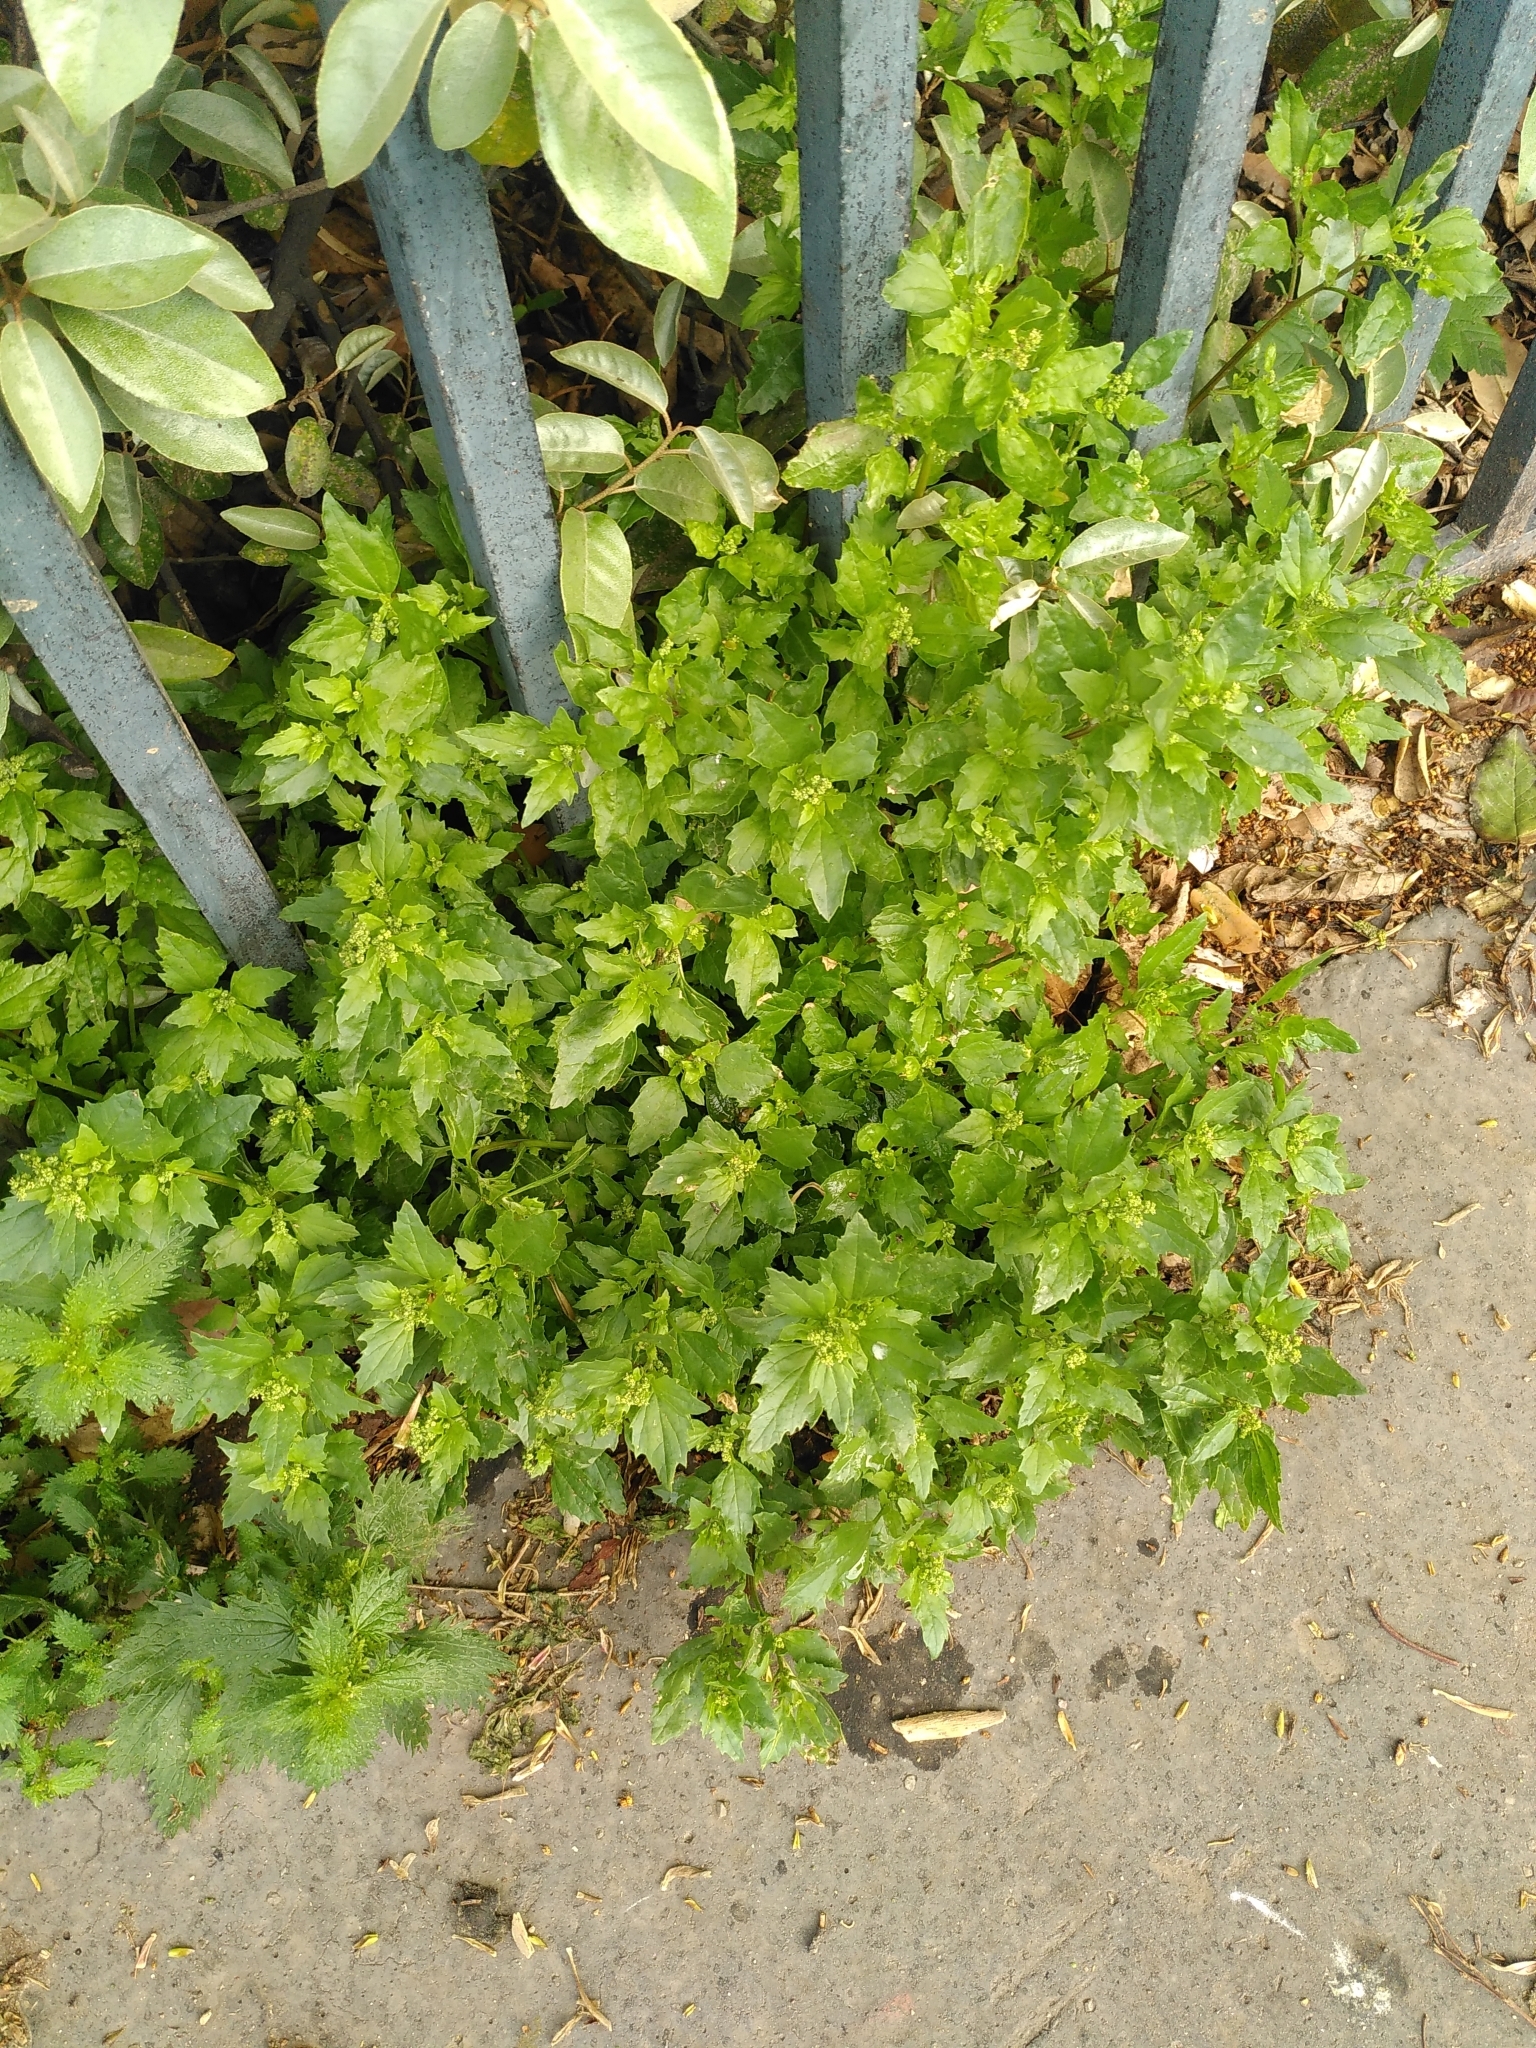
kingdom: Plantae
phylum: Tracheophyta
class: Magnoliopsida
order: Caryophyllales
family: Amaranthaceae
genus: Chenopodiastrum
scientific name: Chenopodiastrum murale
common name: Sowbane
